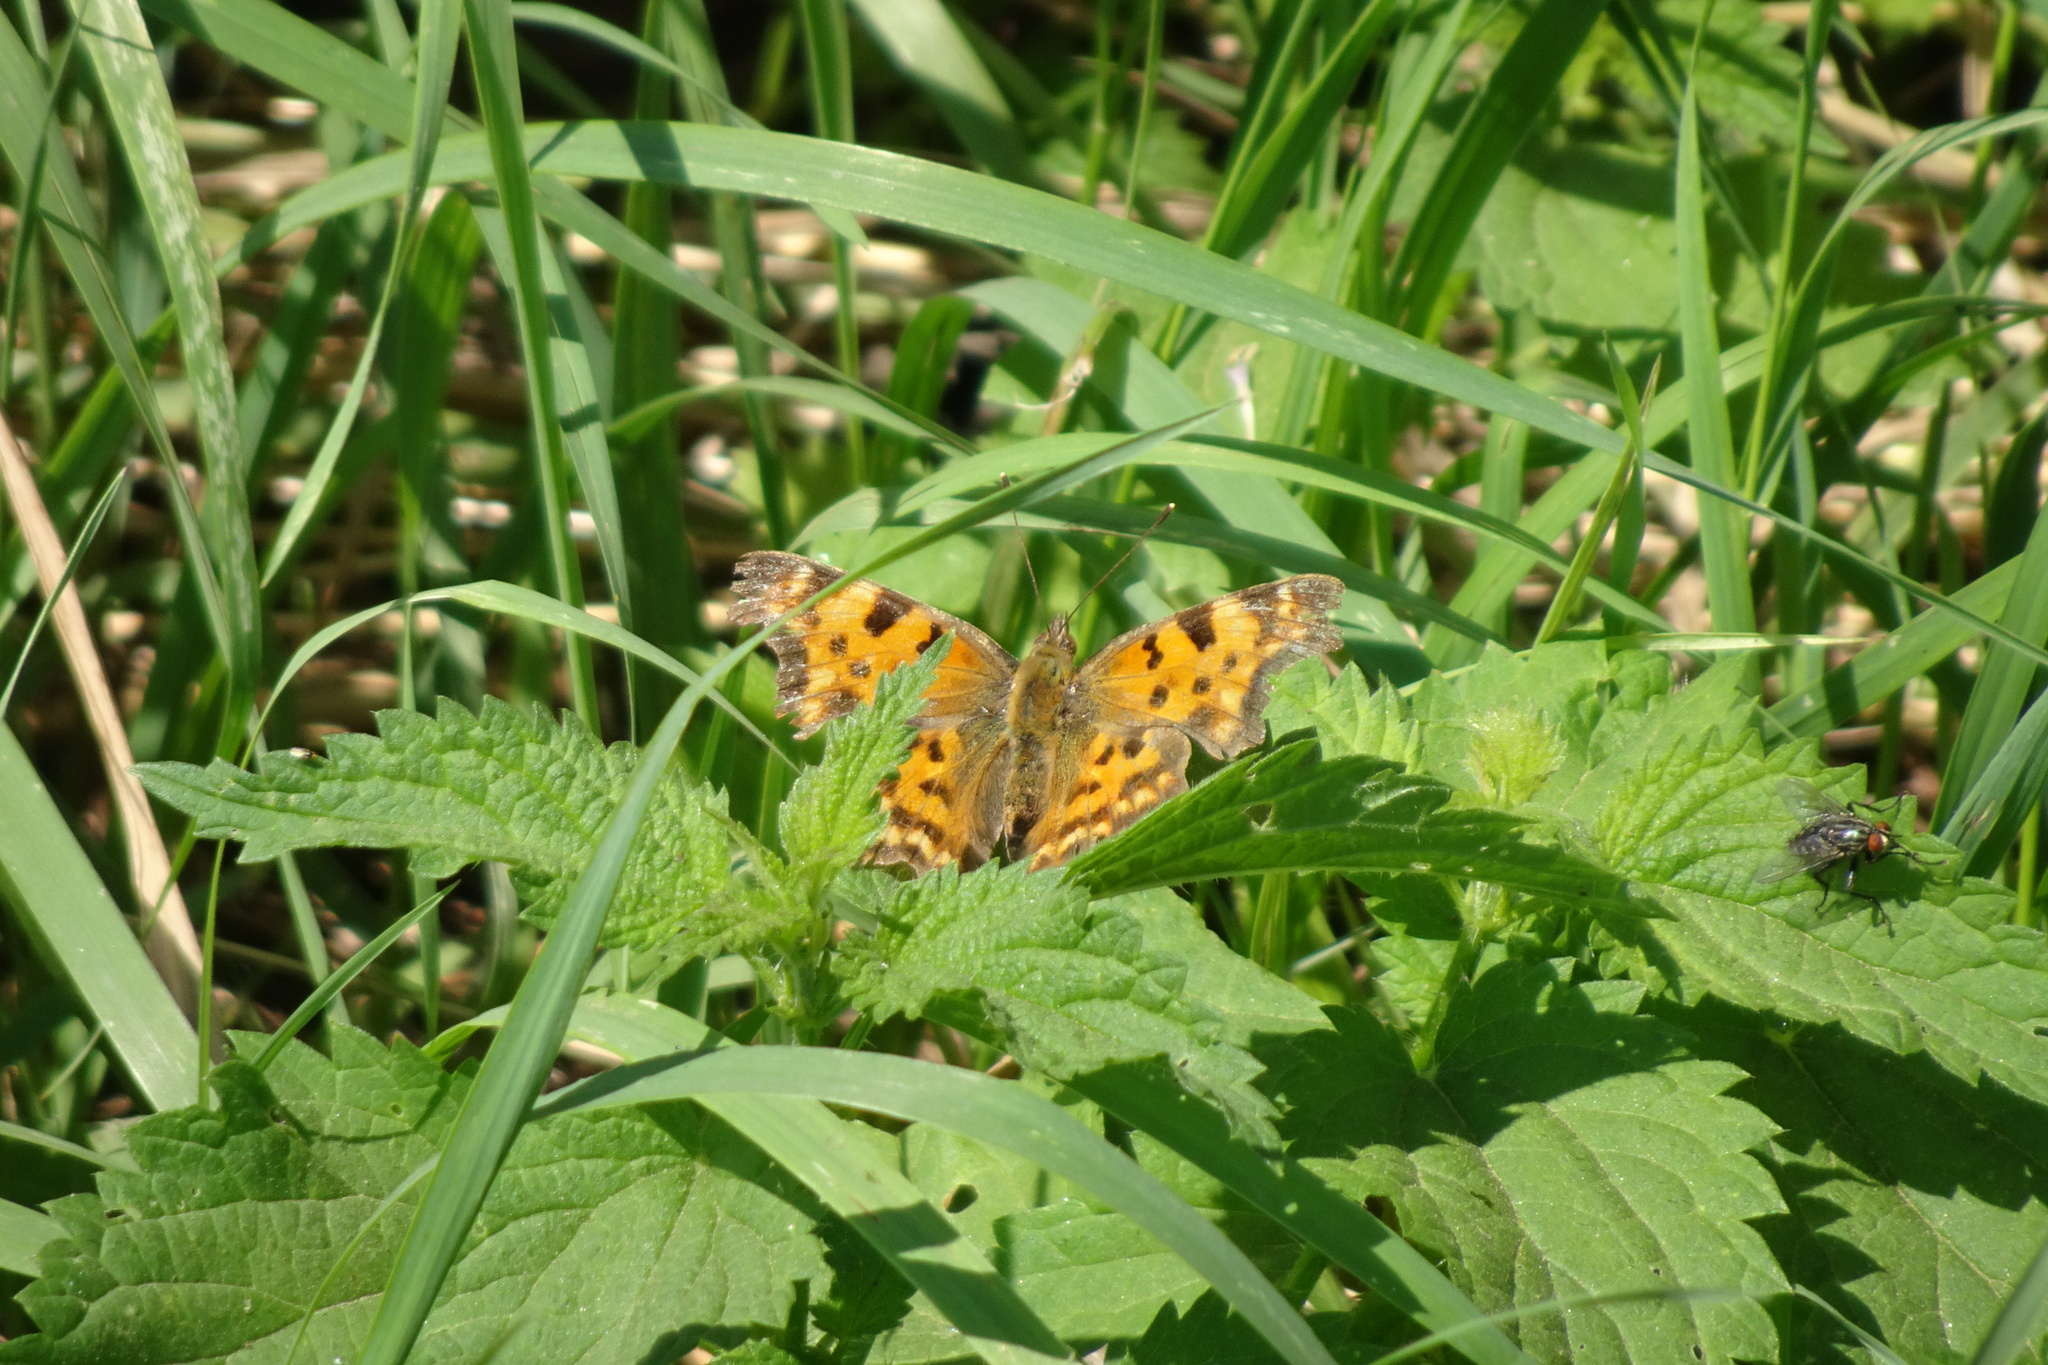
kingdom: Animalia
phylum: Arthropoda
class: Insecta
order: Lepidoptera
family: Nymphalidae
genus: Polygonia
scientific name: Polygonia c-album
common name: Comma
